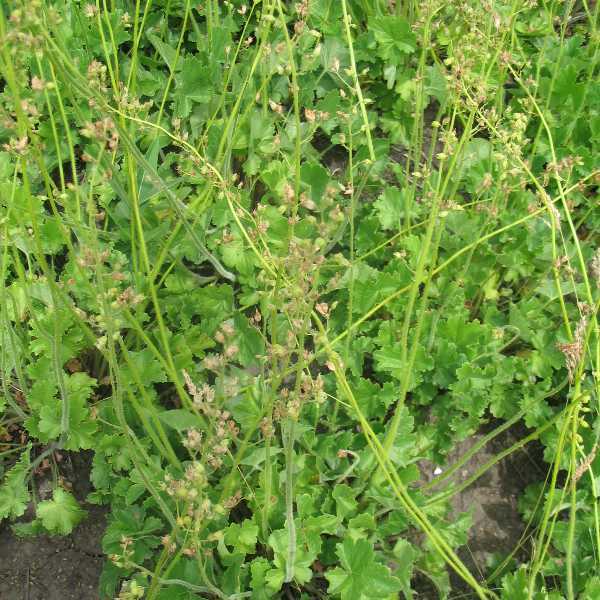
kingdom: Plantae
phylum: Tracheophyta
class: Magnoliopsida
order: Saxifragales
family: Saxifragaceae
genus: Heuchera
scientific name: Heuchera richardsonii
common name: Richardson's alumroot
